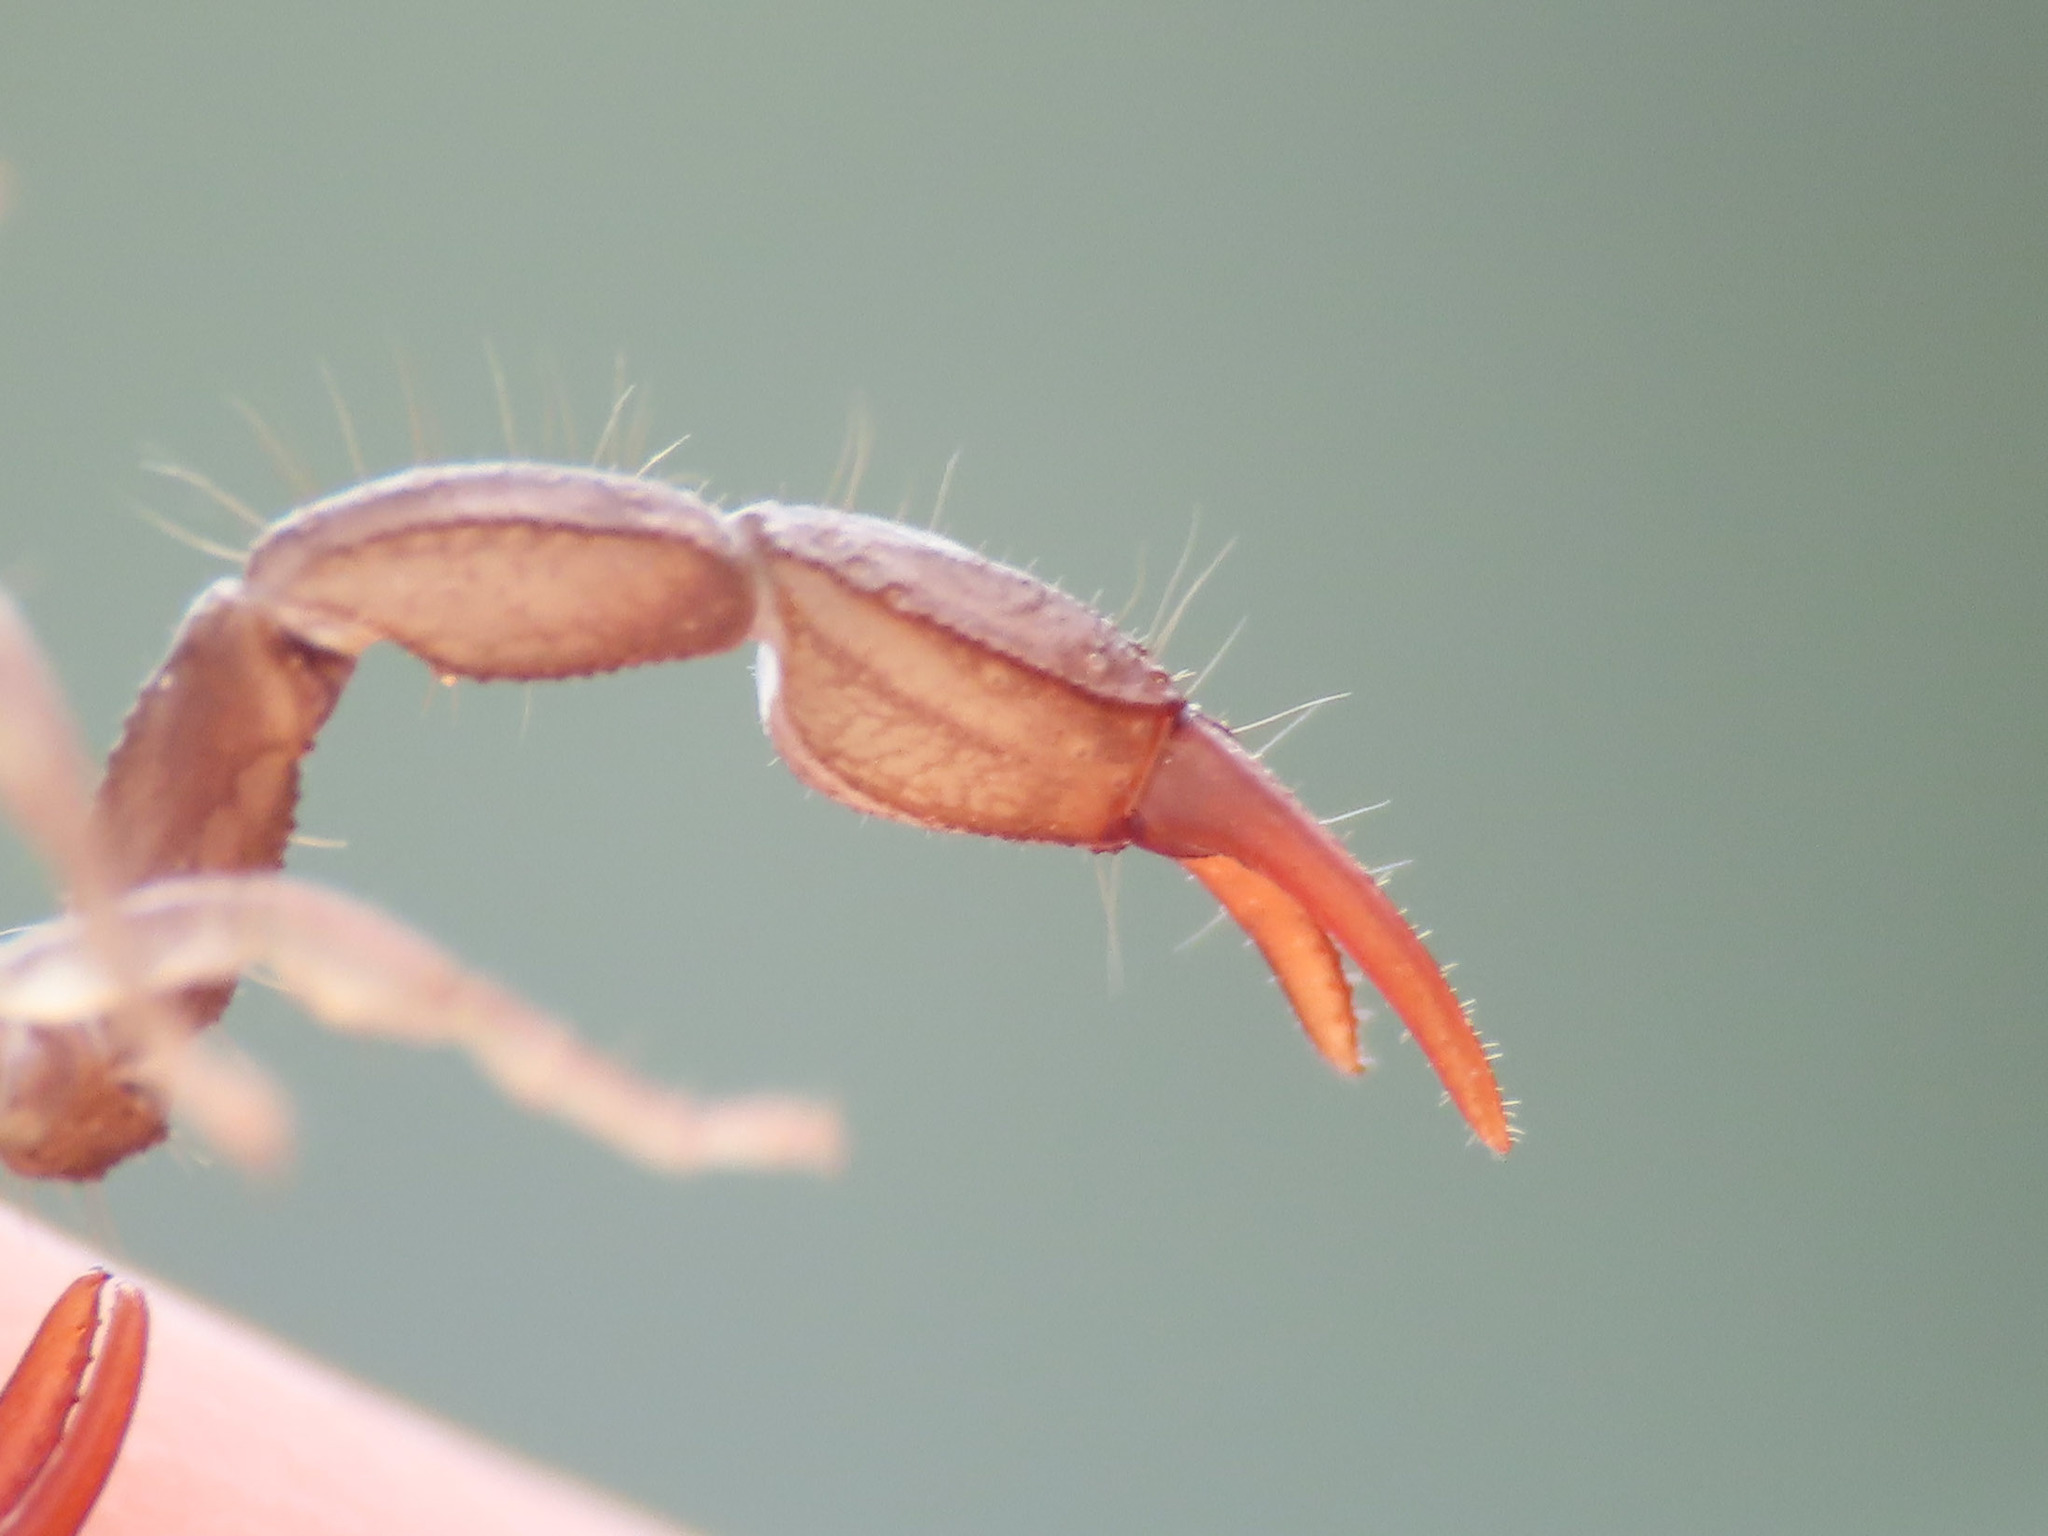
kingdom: Animalia
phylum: Arthropoda
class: Arachnida
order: Scorpiones
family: Euscorpiidae
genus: Euscorpius
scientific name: Euscorpius celanus
